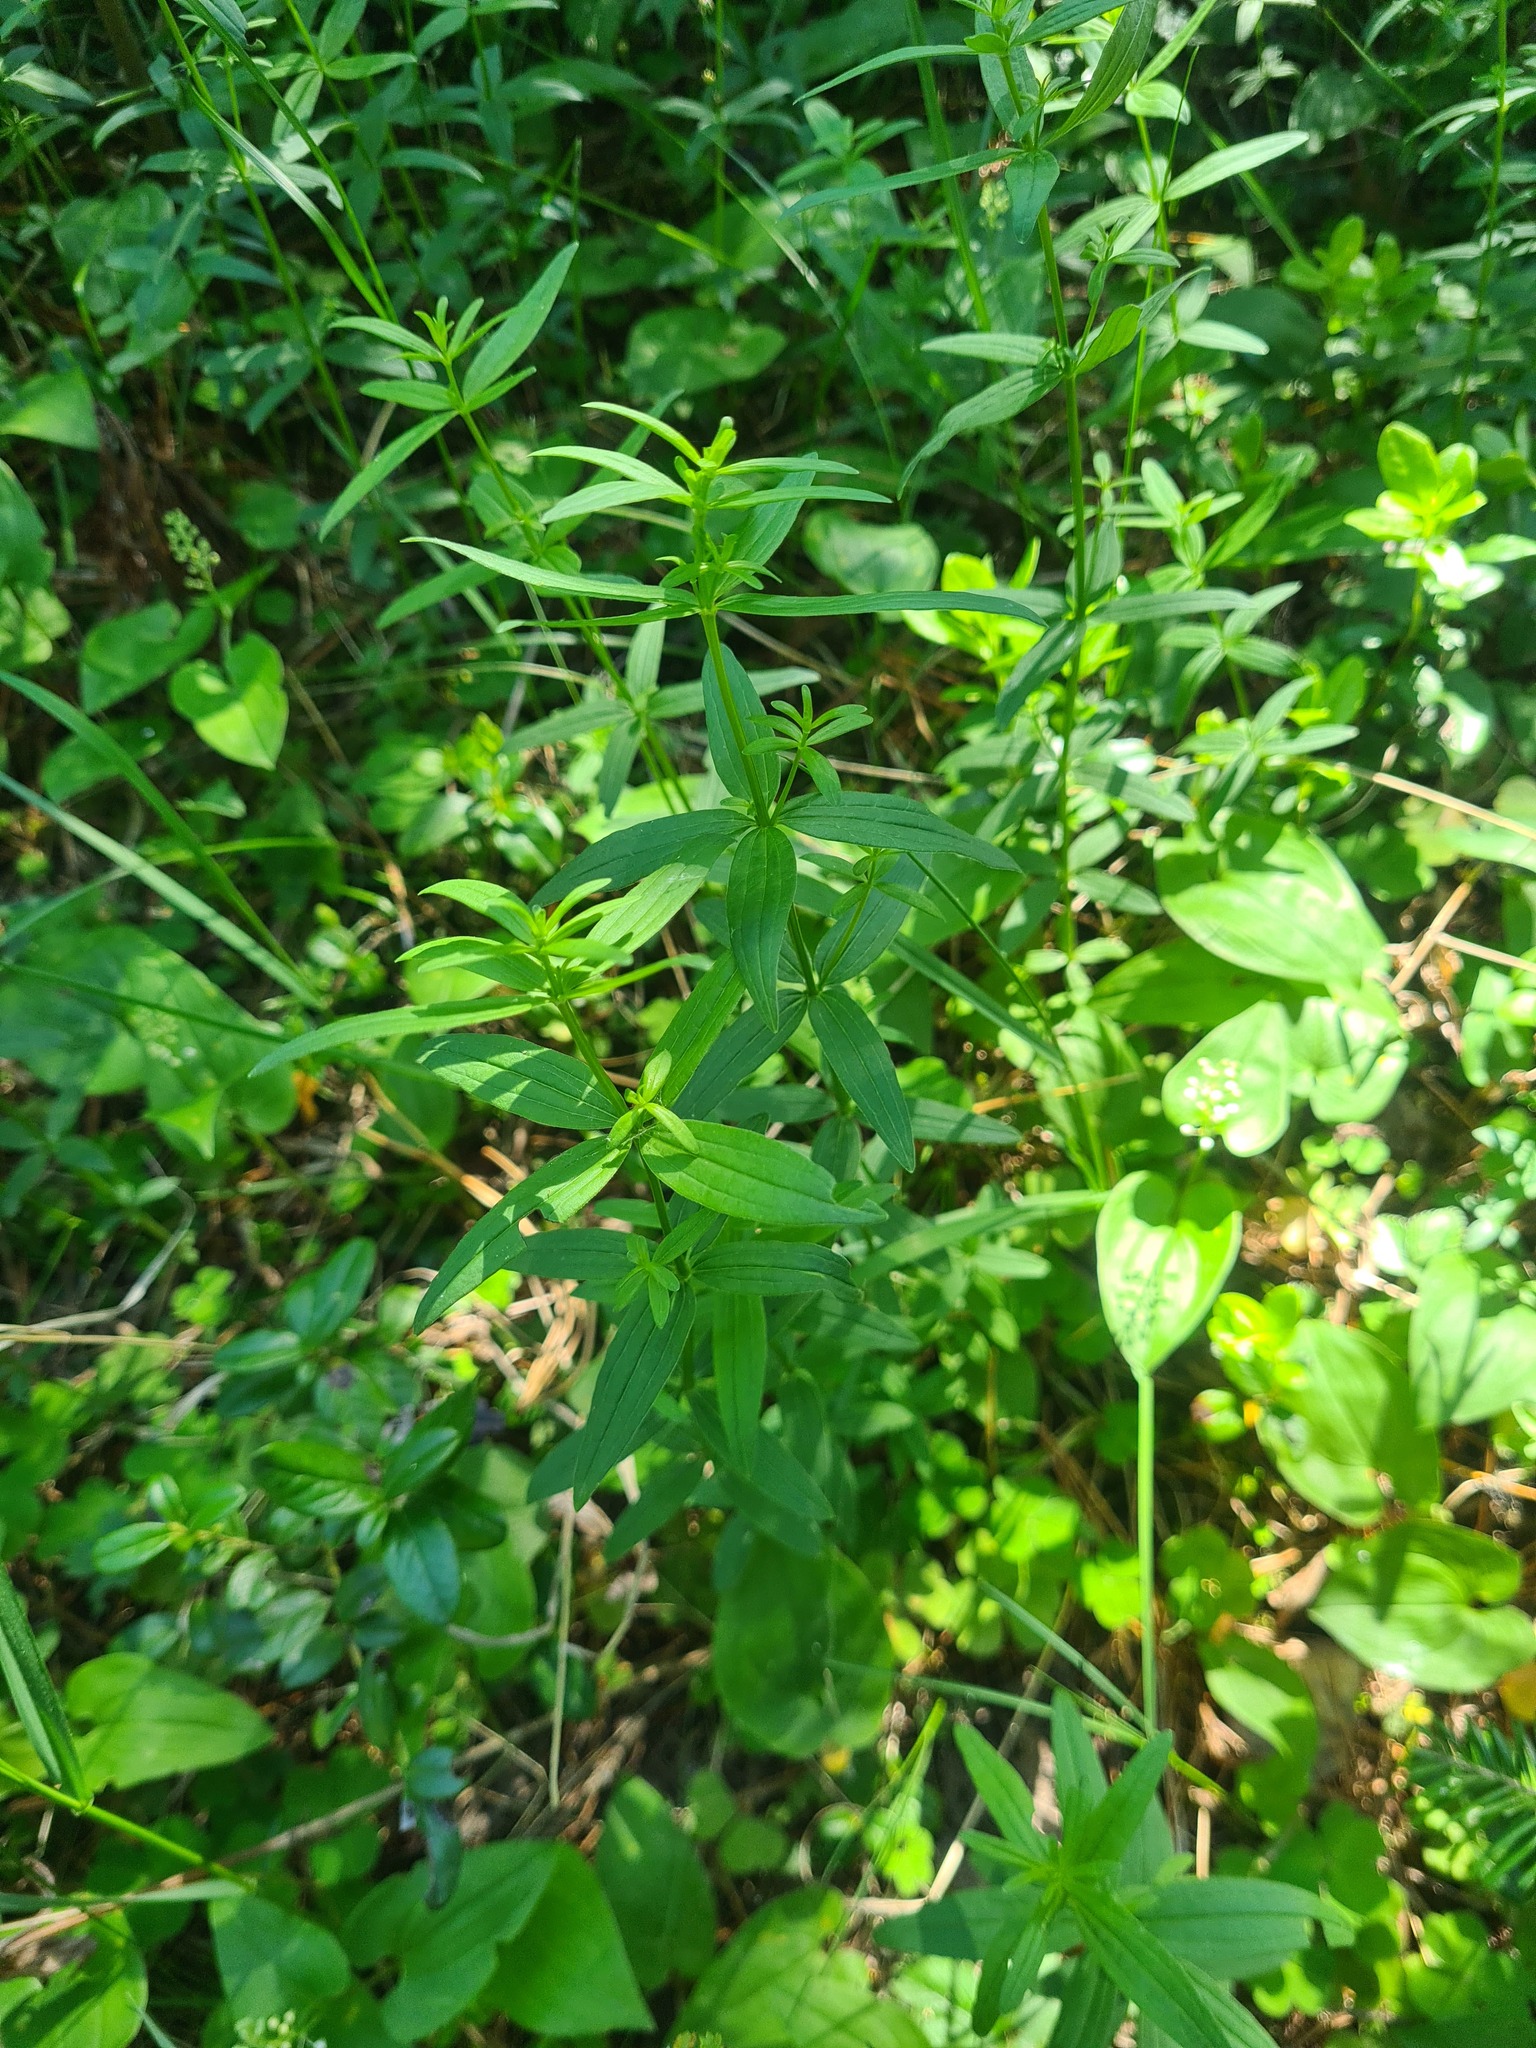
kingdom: Plantae
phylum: Tracheophyta
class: Magnoliopsida
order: Gentianales
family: Rubiaceae
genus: Galium
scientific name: Galium boreale
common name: Northern bedstraw
